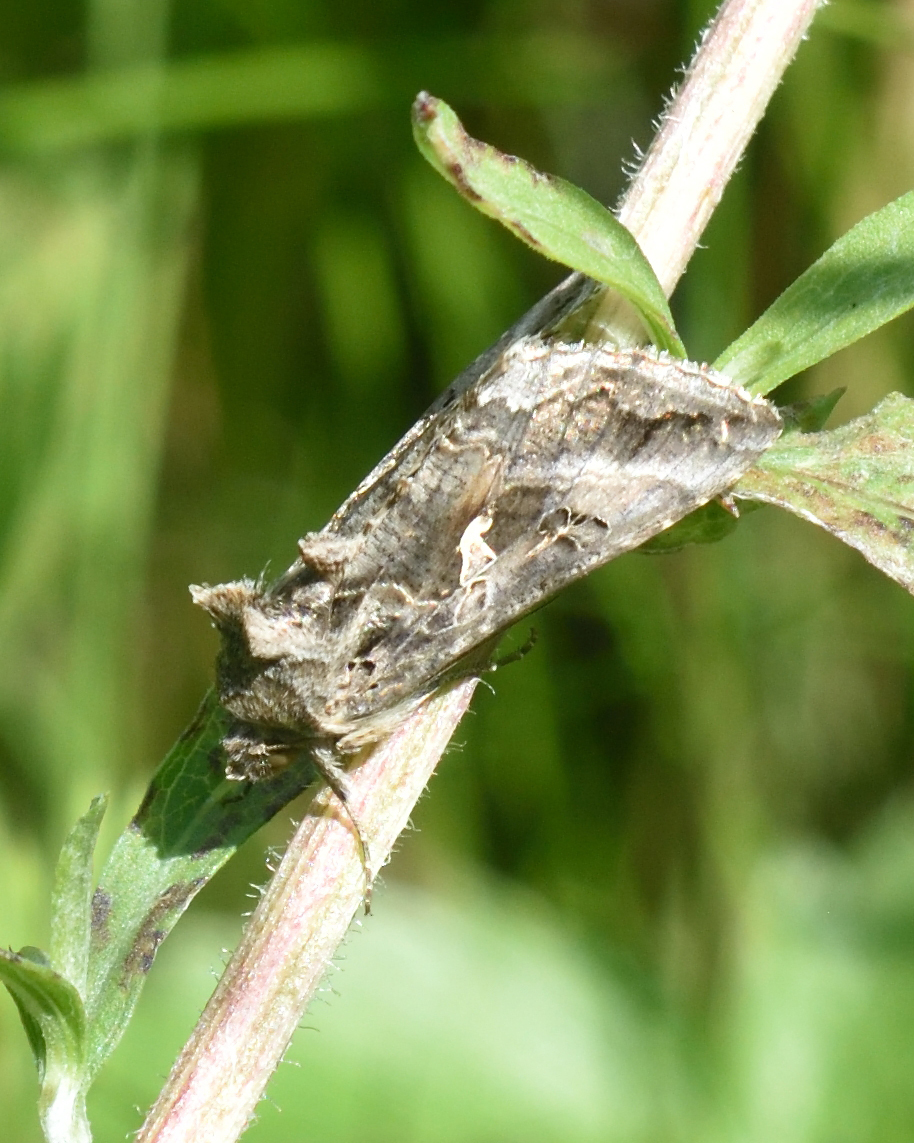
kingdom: Animalia
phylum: Arthropoda
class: Insecta
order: Lepidoptera
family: Noctuidae
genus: Autographa
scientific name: Autographa gamma
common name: Silver y
